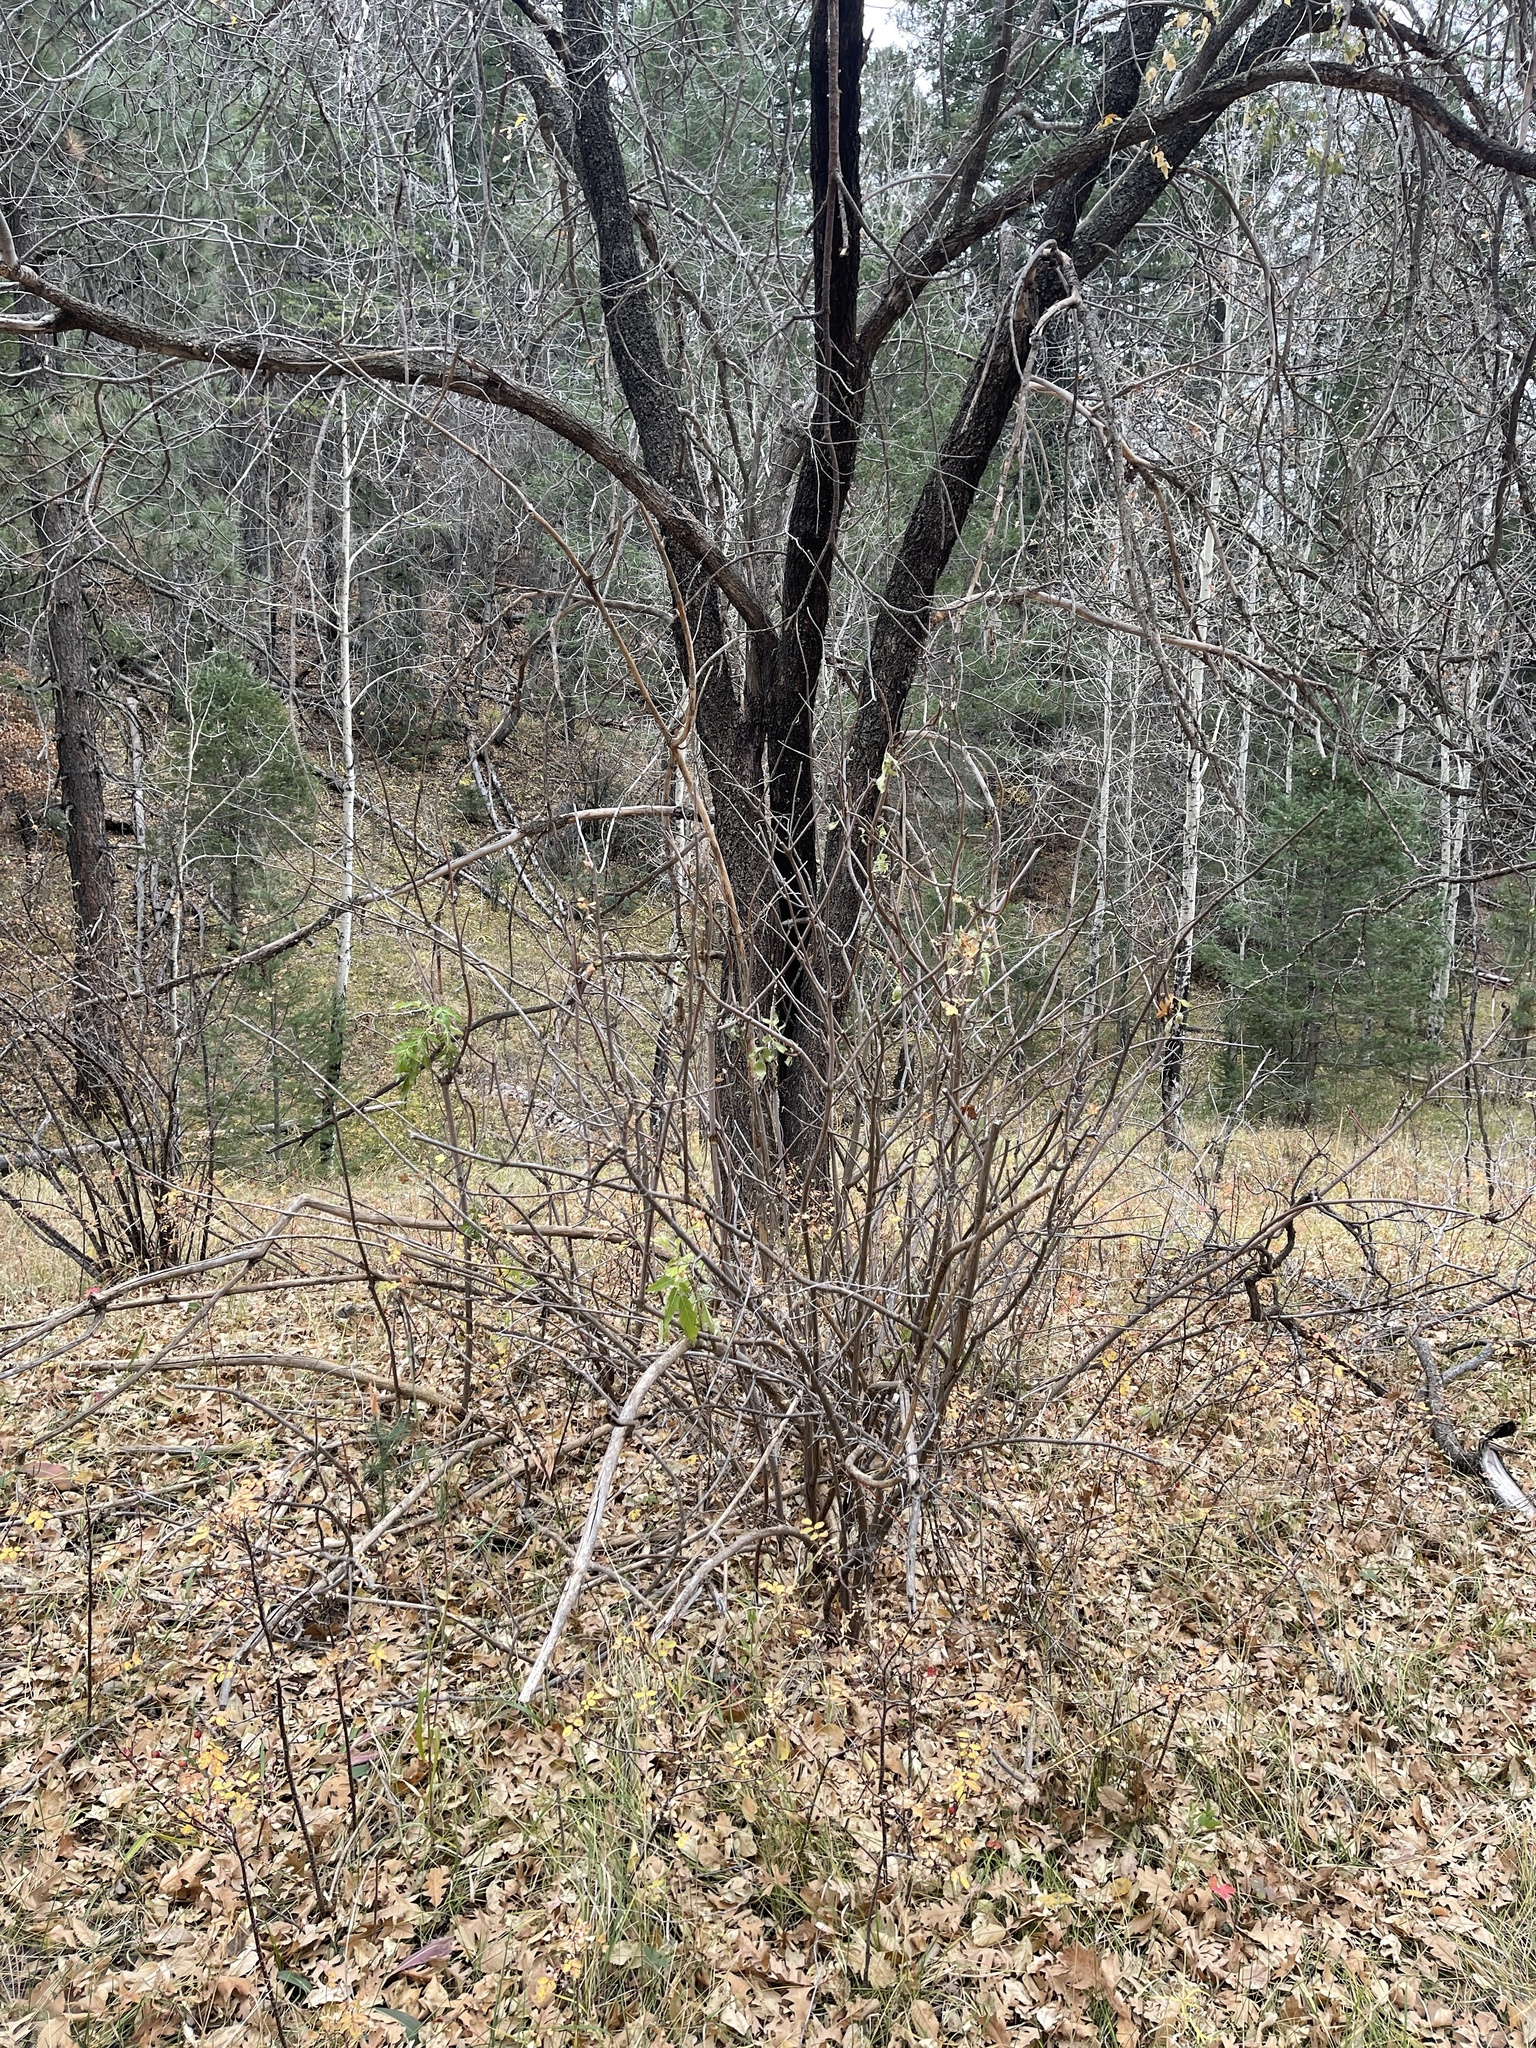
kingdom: Plantae
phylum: Tracheophyta
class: Magnoliopsida
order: Dipsacales
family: Viburnaceae
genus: Sambucus
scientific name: Sambucus cerulea
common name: Blue elder
